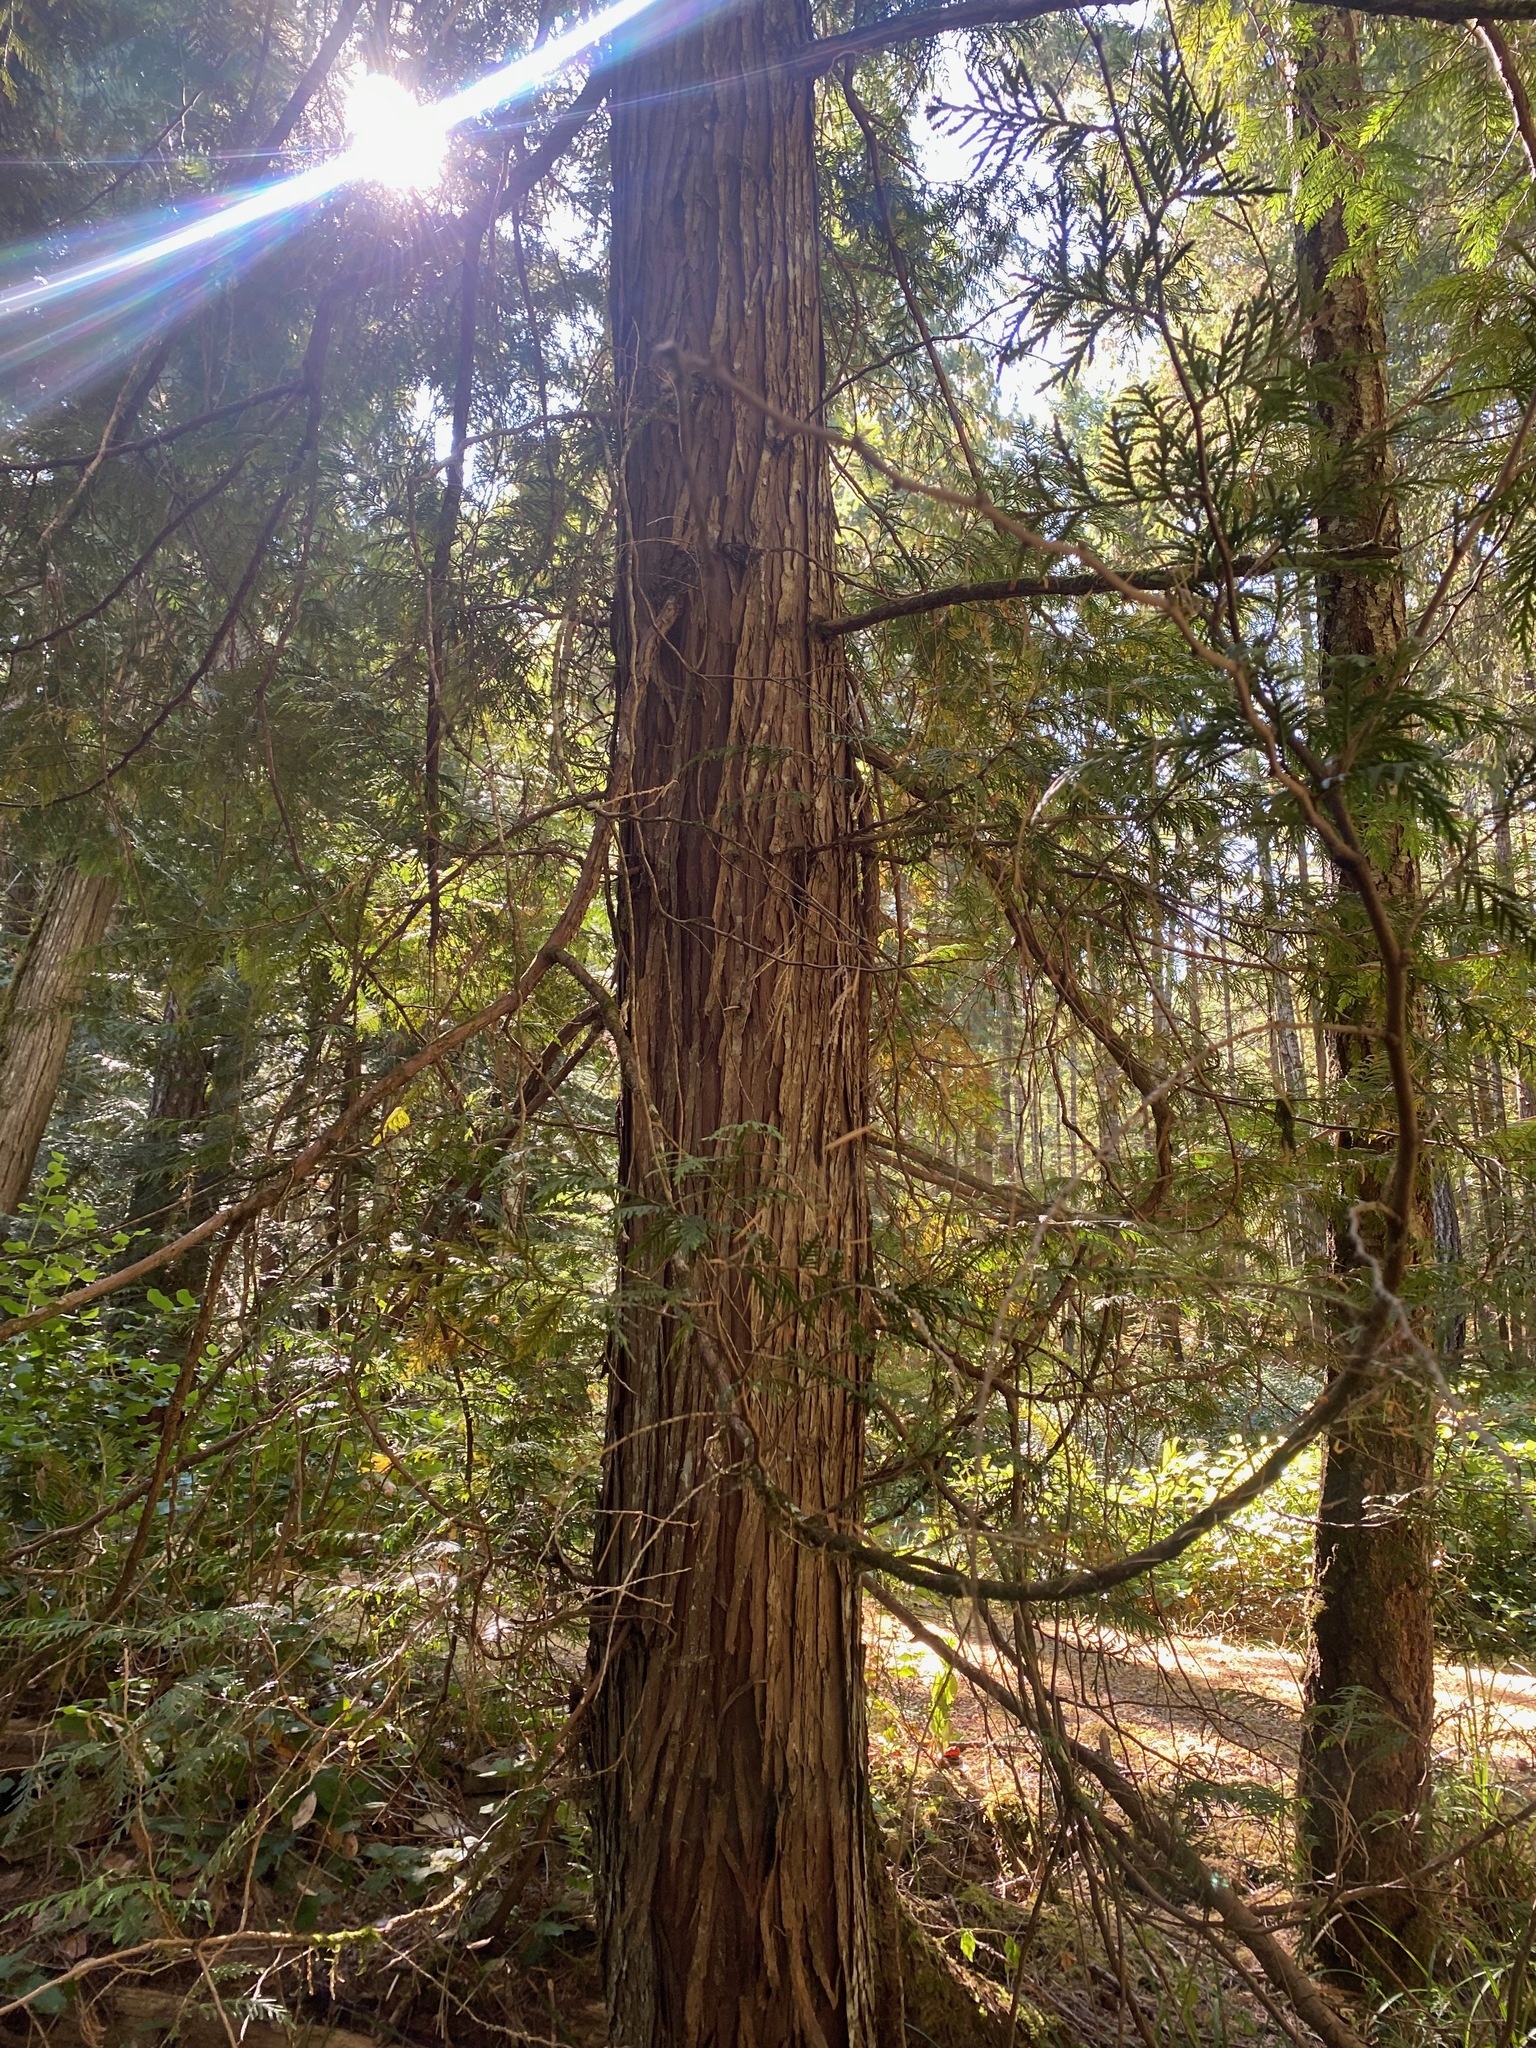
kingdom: Plantae
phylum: Tracheophyta
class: Pinopsida
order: Pinales
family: Cupressaceae
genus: Thuja
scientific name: Thuja plicata
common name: Western red-cedar
